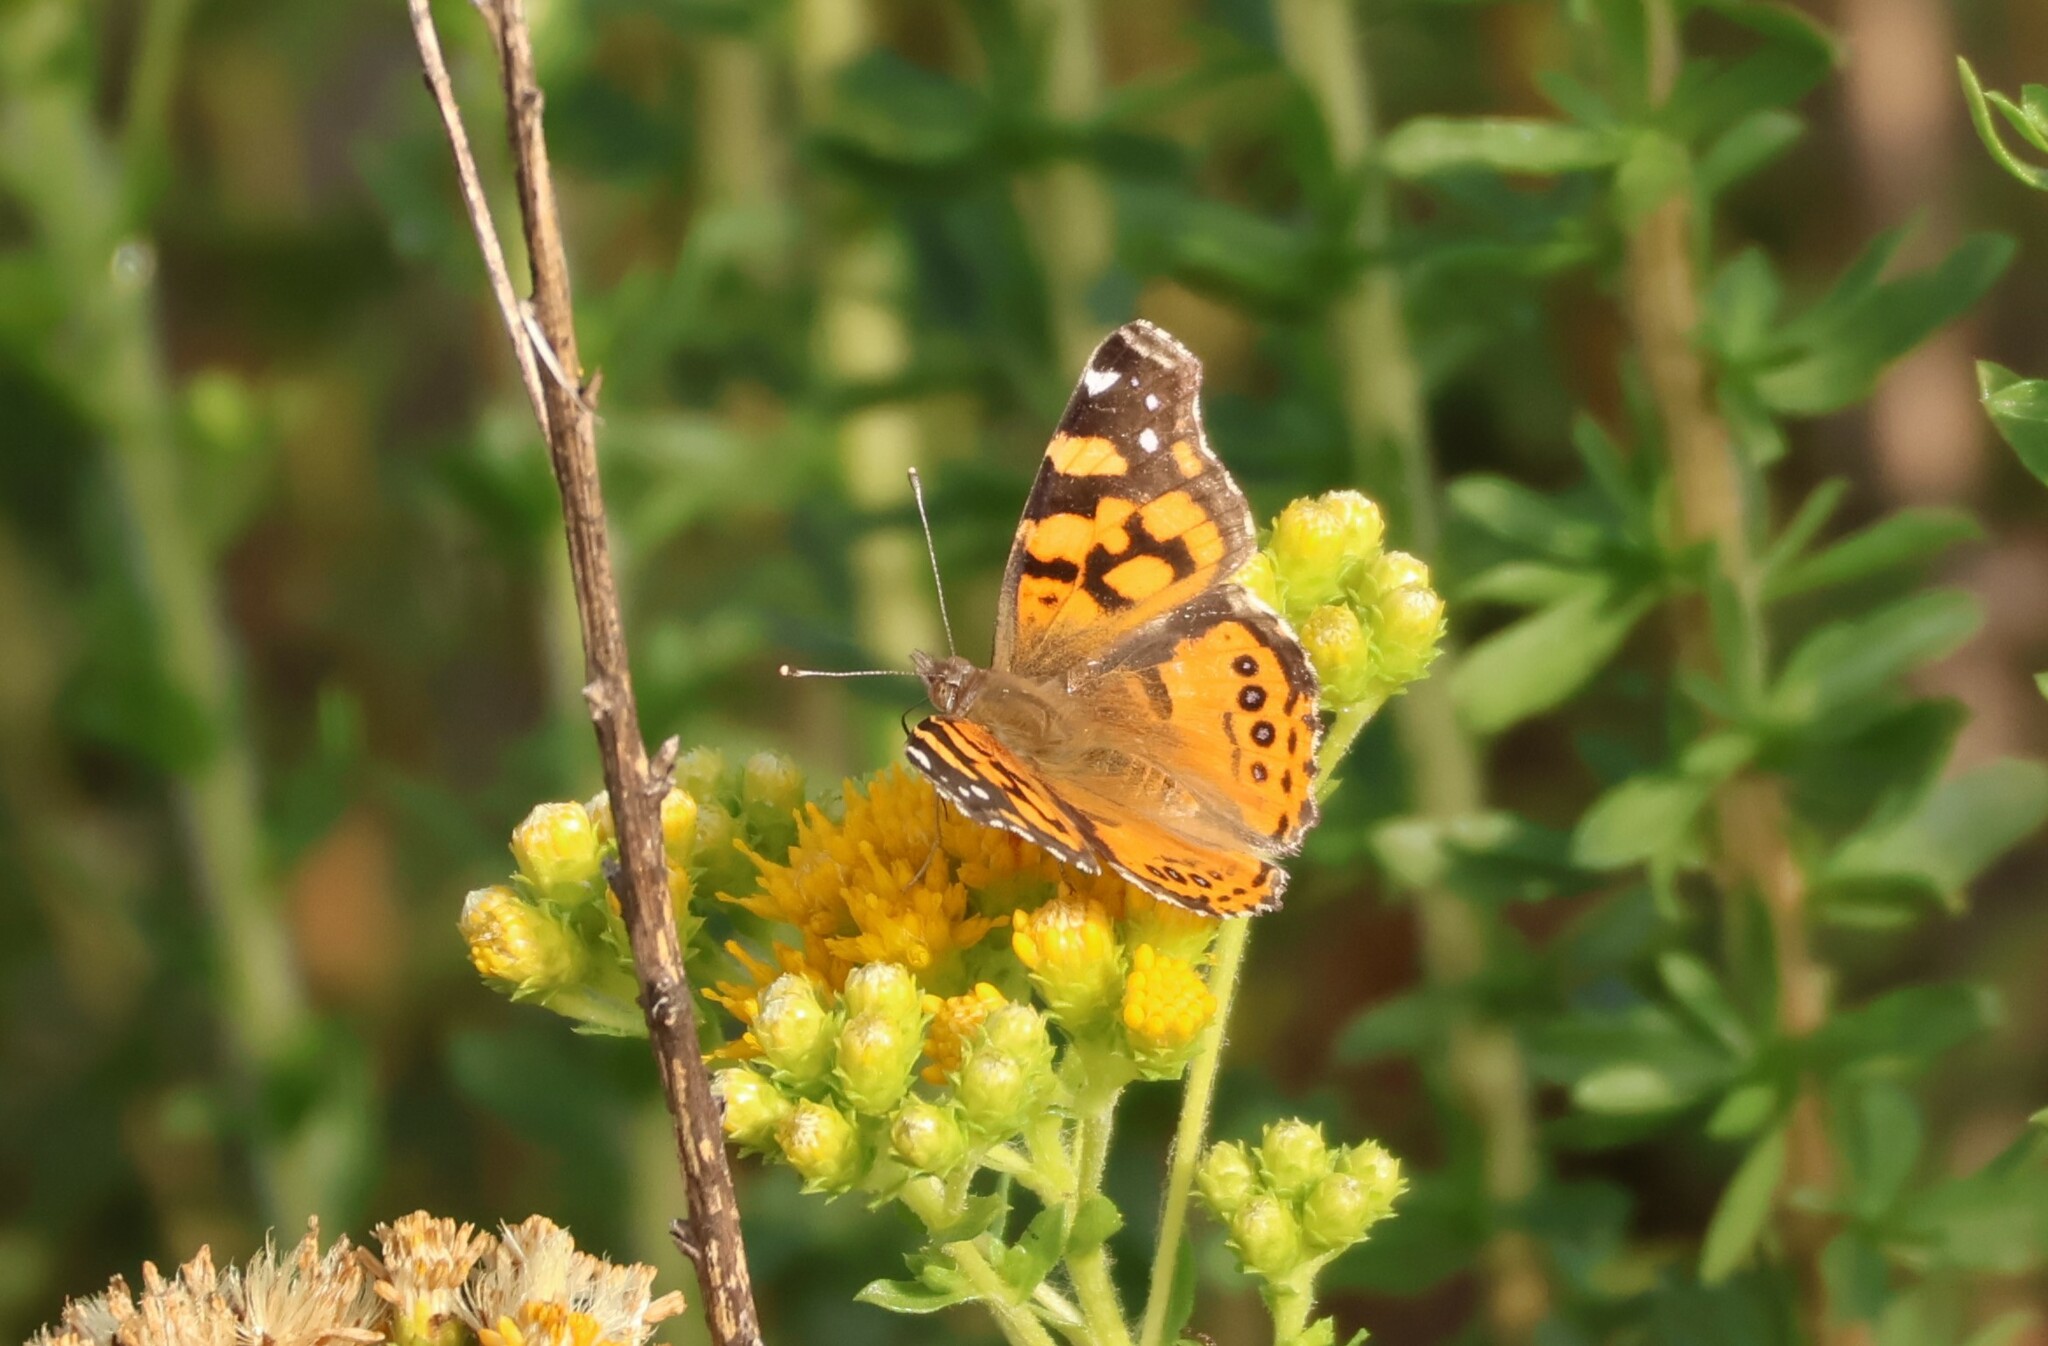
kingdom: Animalia
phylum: Arthropoda
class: Insecta
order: Lepidoptera
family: Nymphalidae
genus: Vanessa
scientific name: Vanessa annabella
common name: West coast lady
